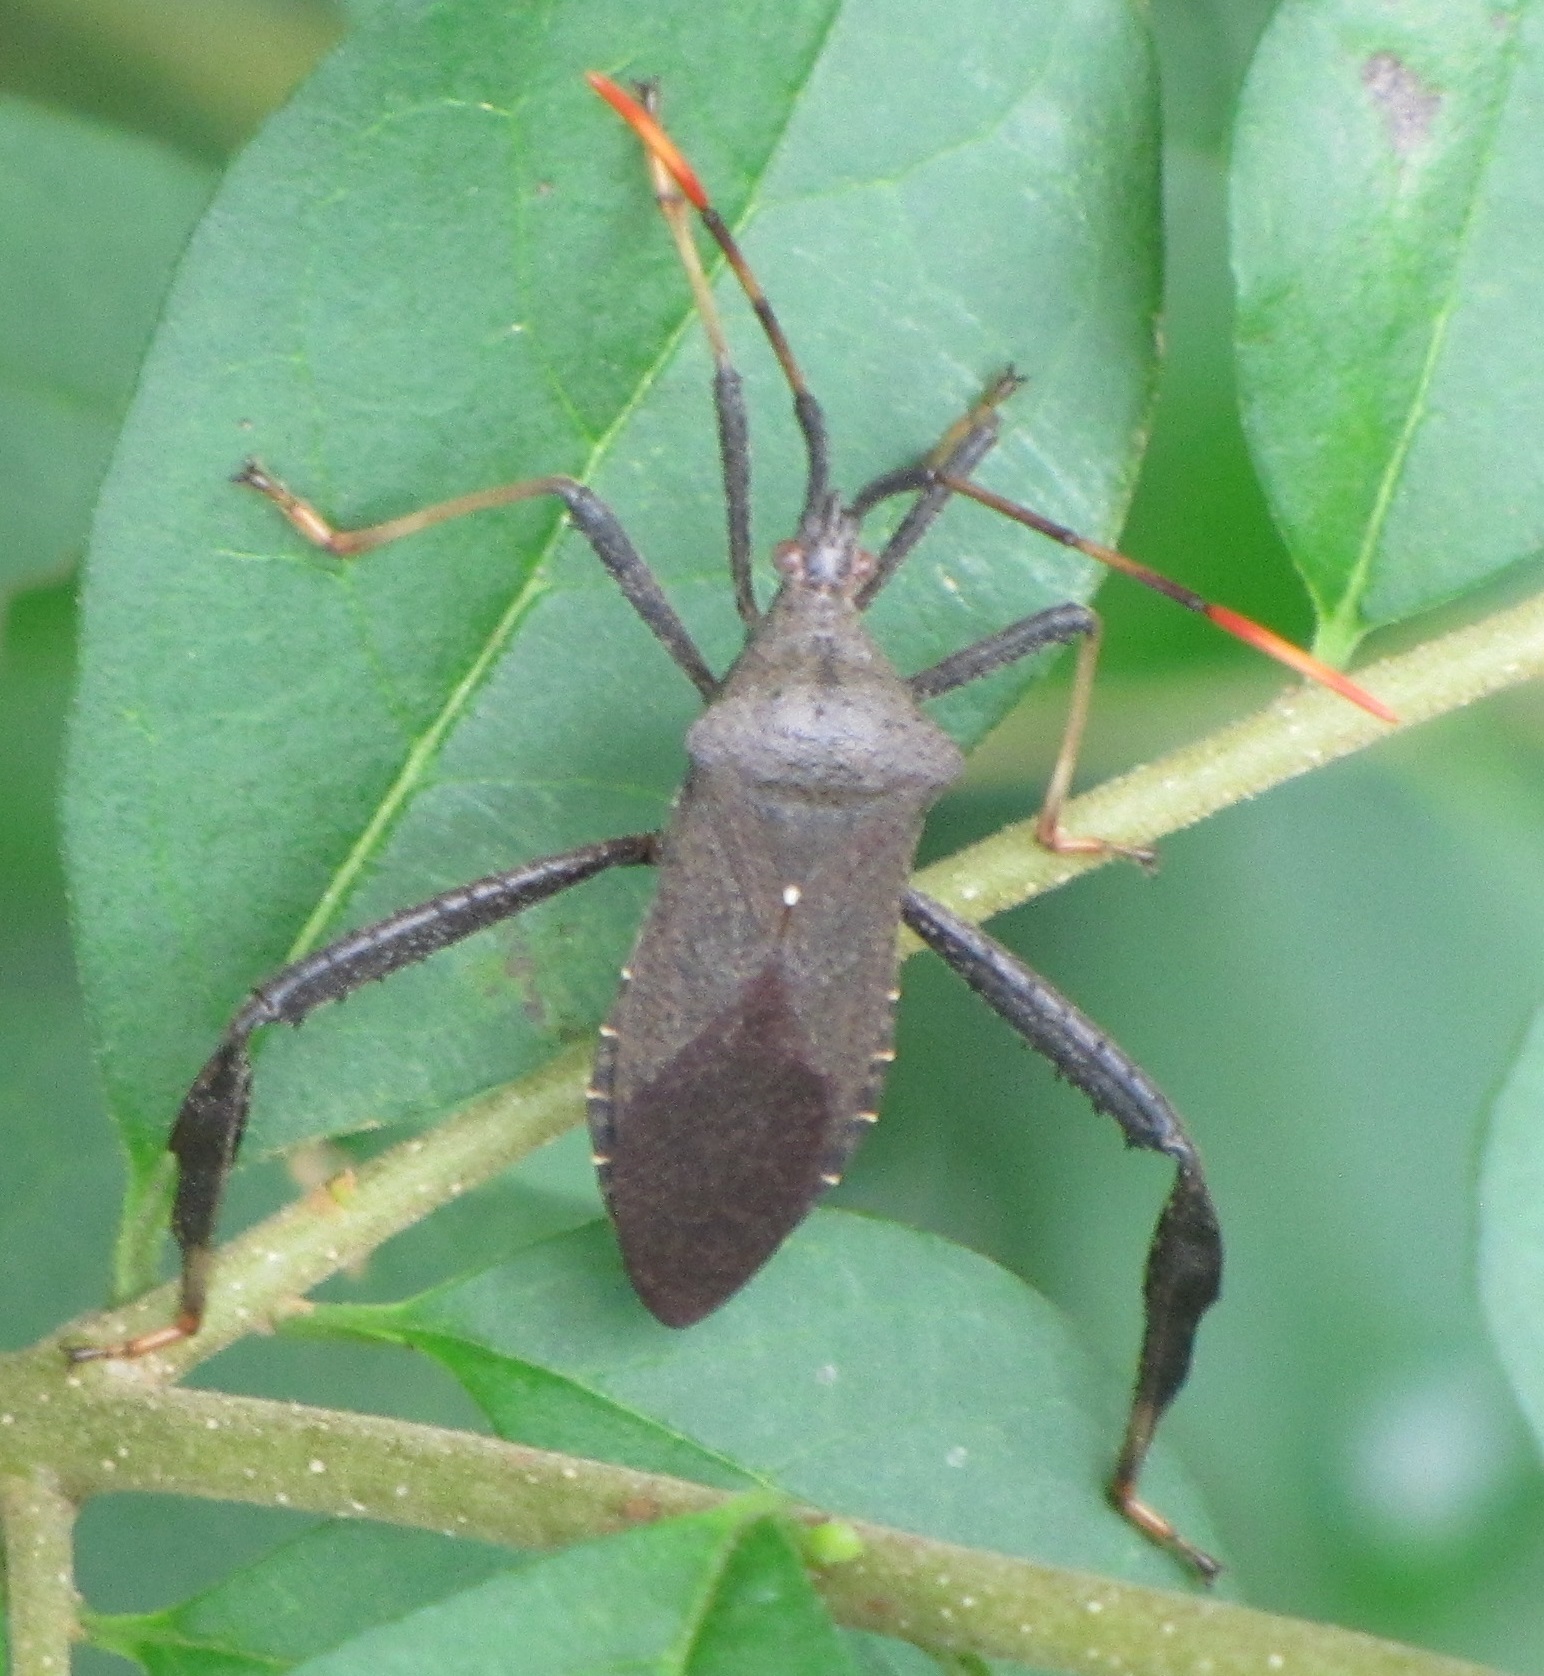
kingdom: Animalia
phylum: Arthropoda
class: Insecta
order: Hemiptera
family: Coreidae
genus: Acanthocephala
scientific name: Acanthocephala terminalis
